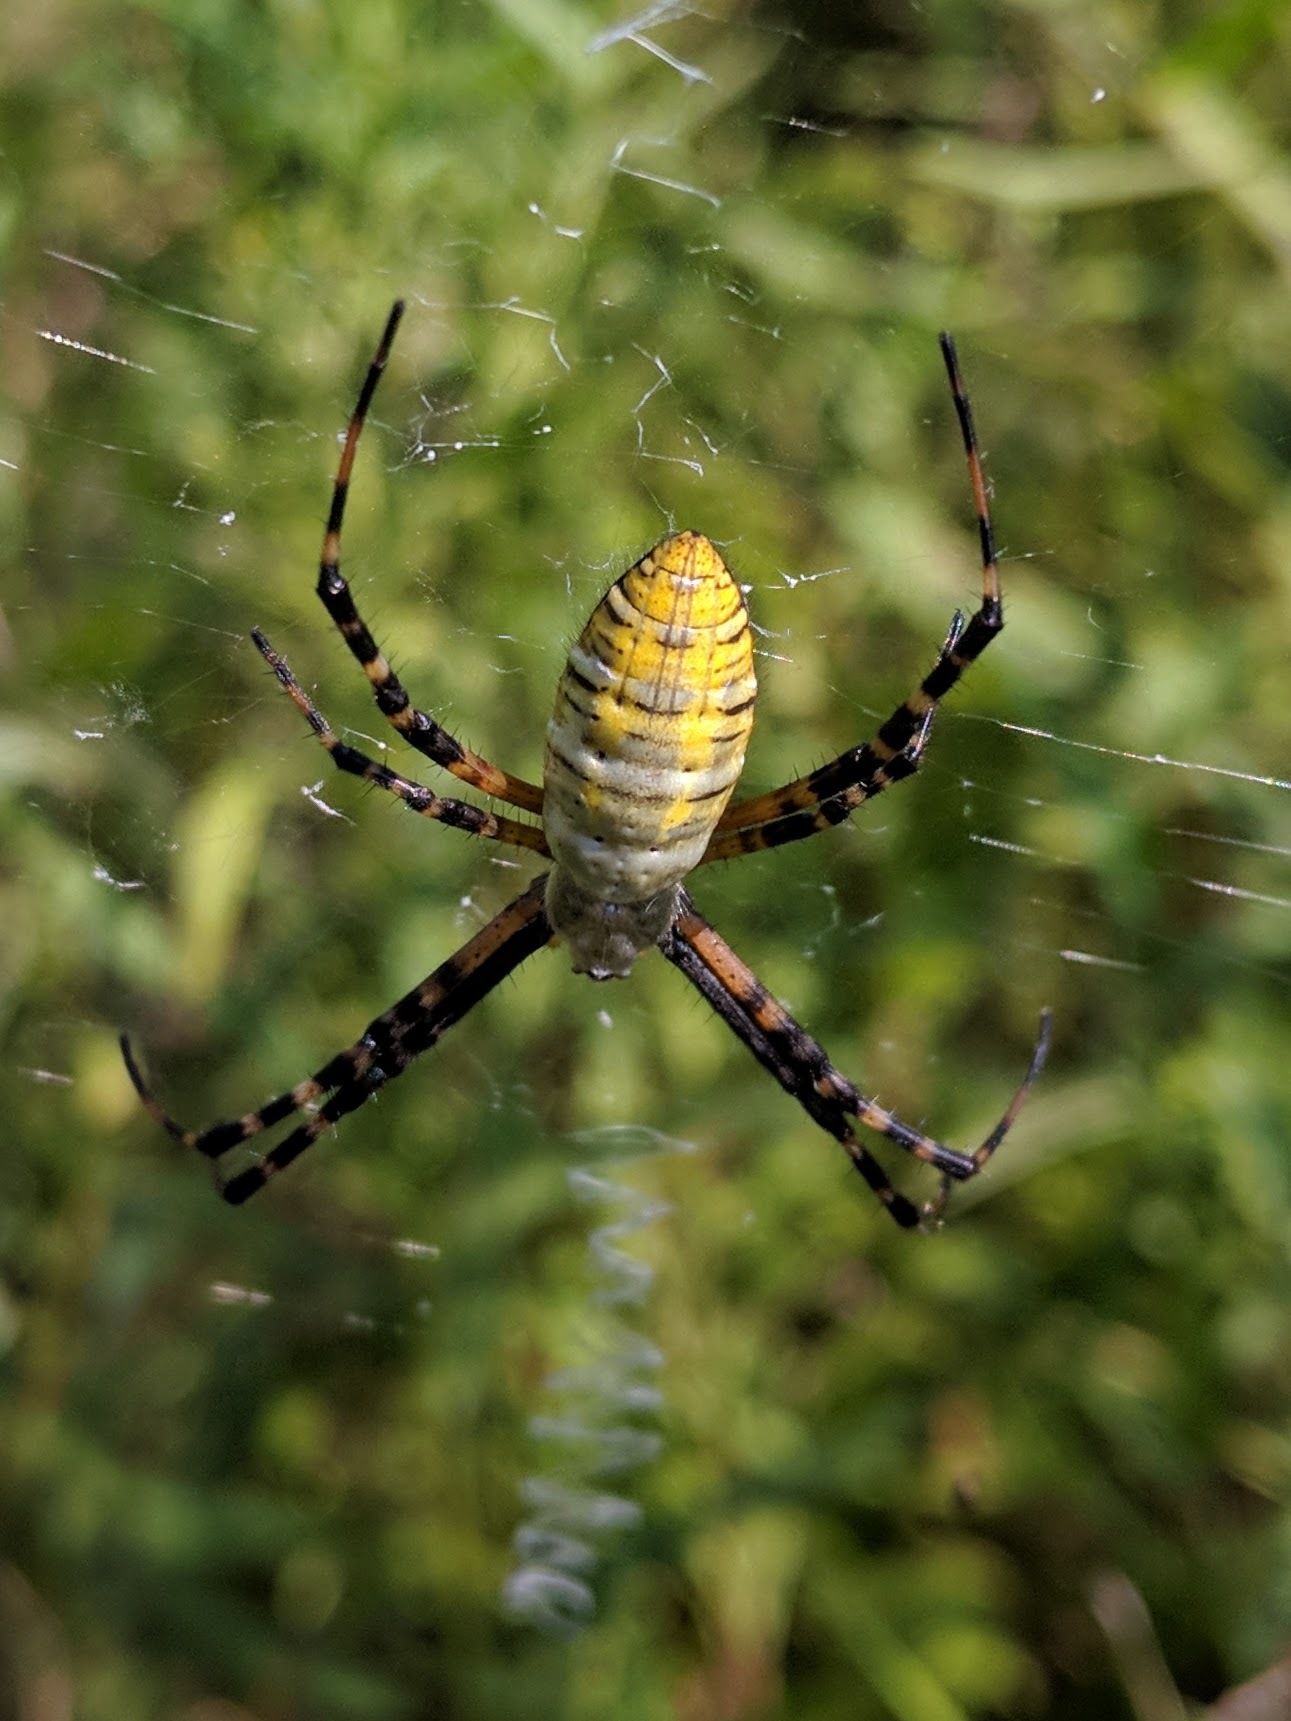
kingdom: Animalia
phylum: Arthropoda
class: Arachnida
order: Araneae
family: Araneidae
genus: Argiope
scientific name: Argiope trifasciata
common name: Banded garden spider
